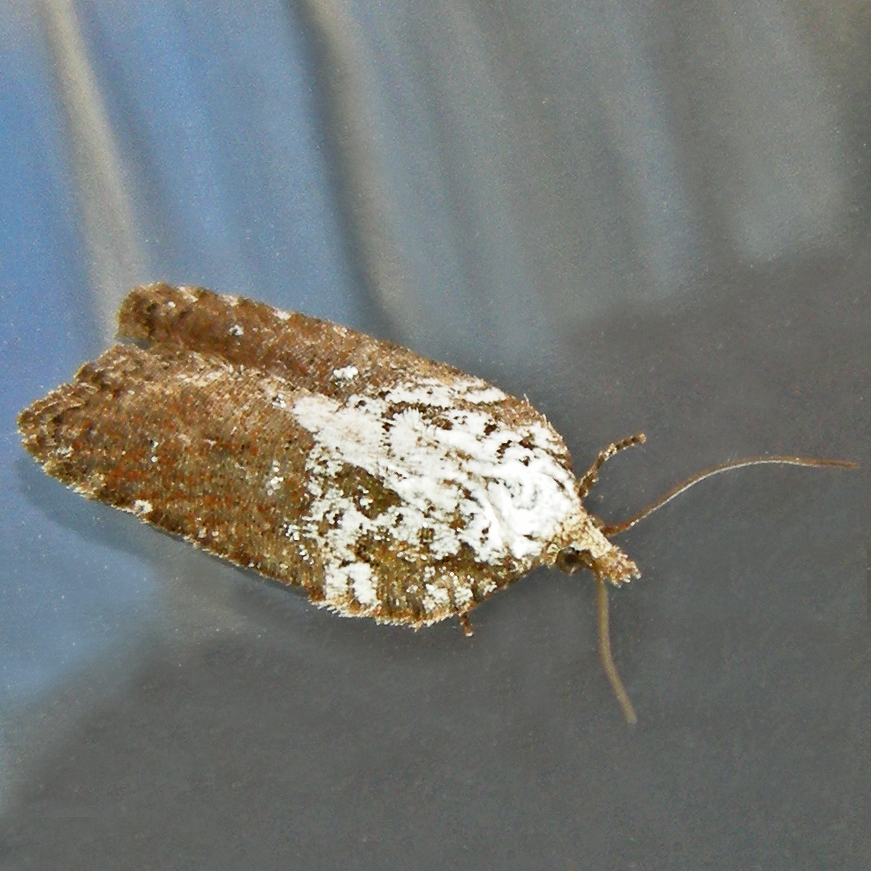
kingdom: Animalia
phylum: Arthropoda
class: Insecta
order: Lepidoptera
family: Tortricidae
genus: Acleris
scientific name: Acleris flavivittana
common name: Multiform leafroller moth
